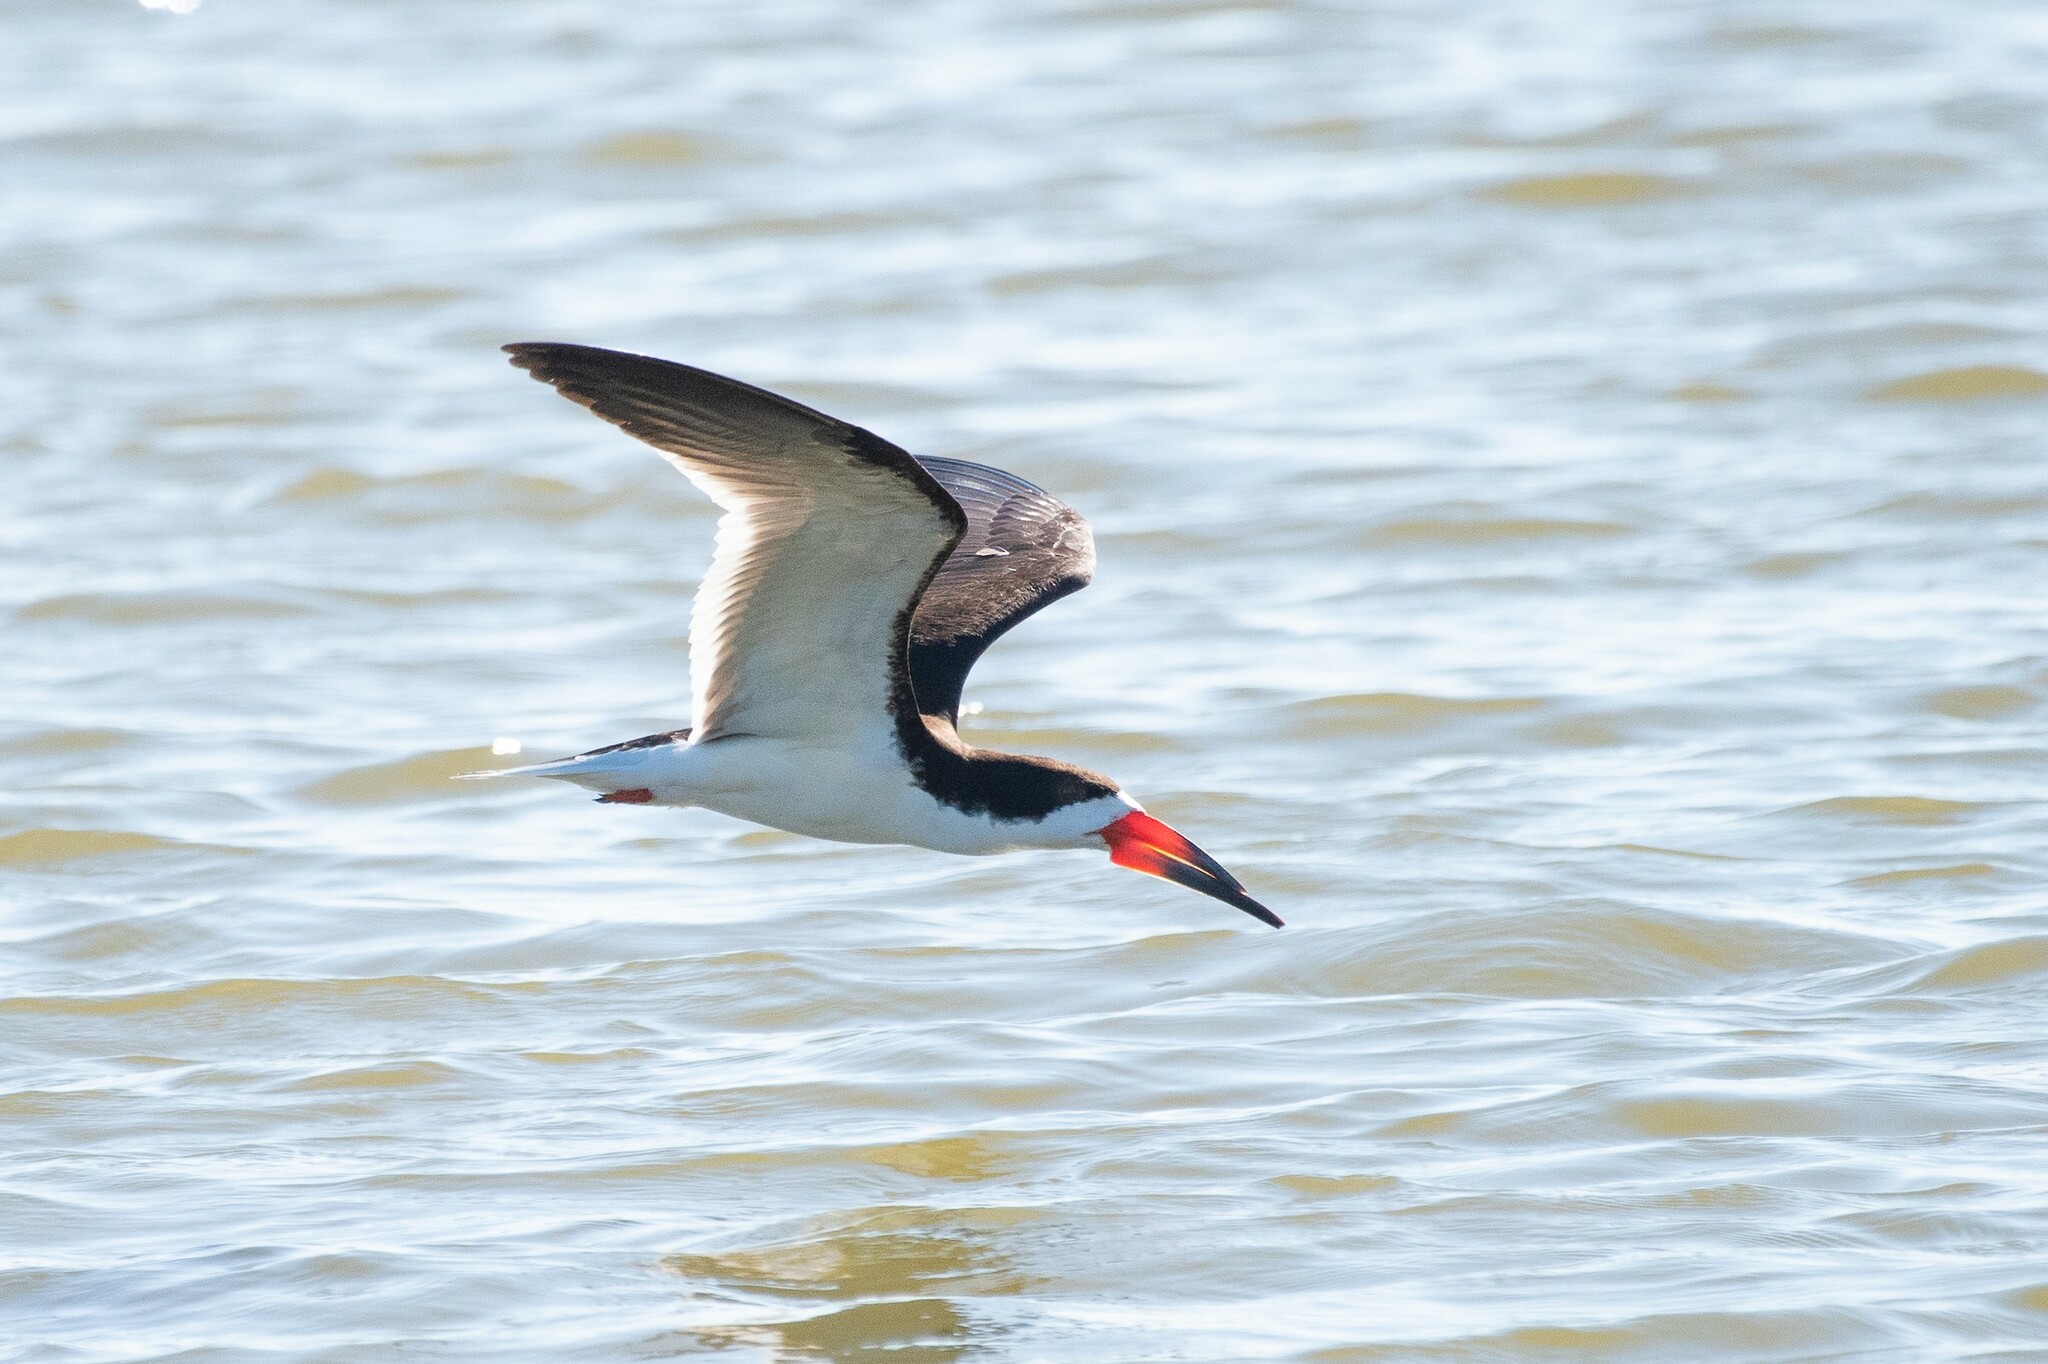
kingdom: Animalia
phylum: Chordata
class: Aves
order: Charadriiformes
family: Laridae
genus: Rynchops
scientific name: Rynchops niger
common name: Black skimmer
